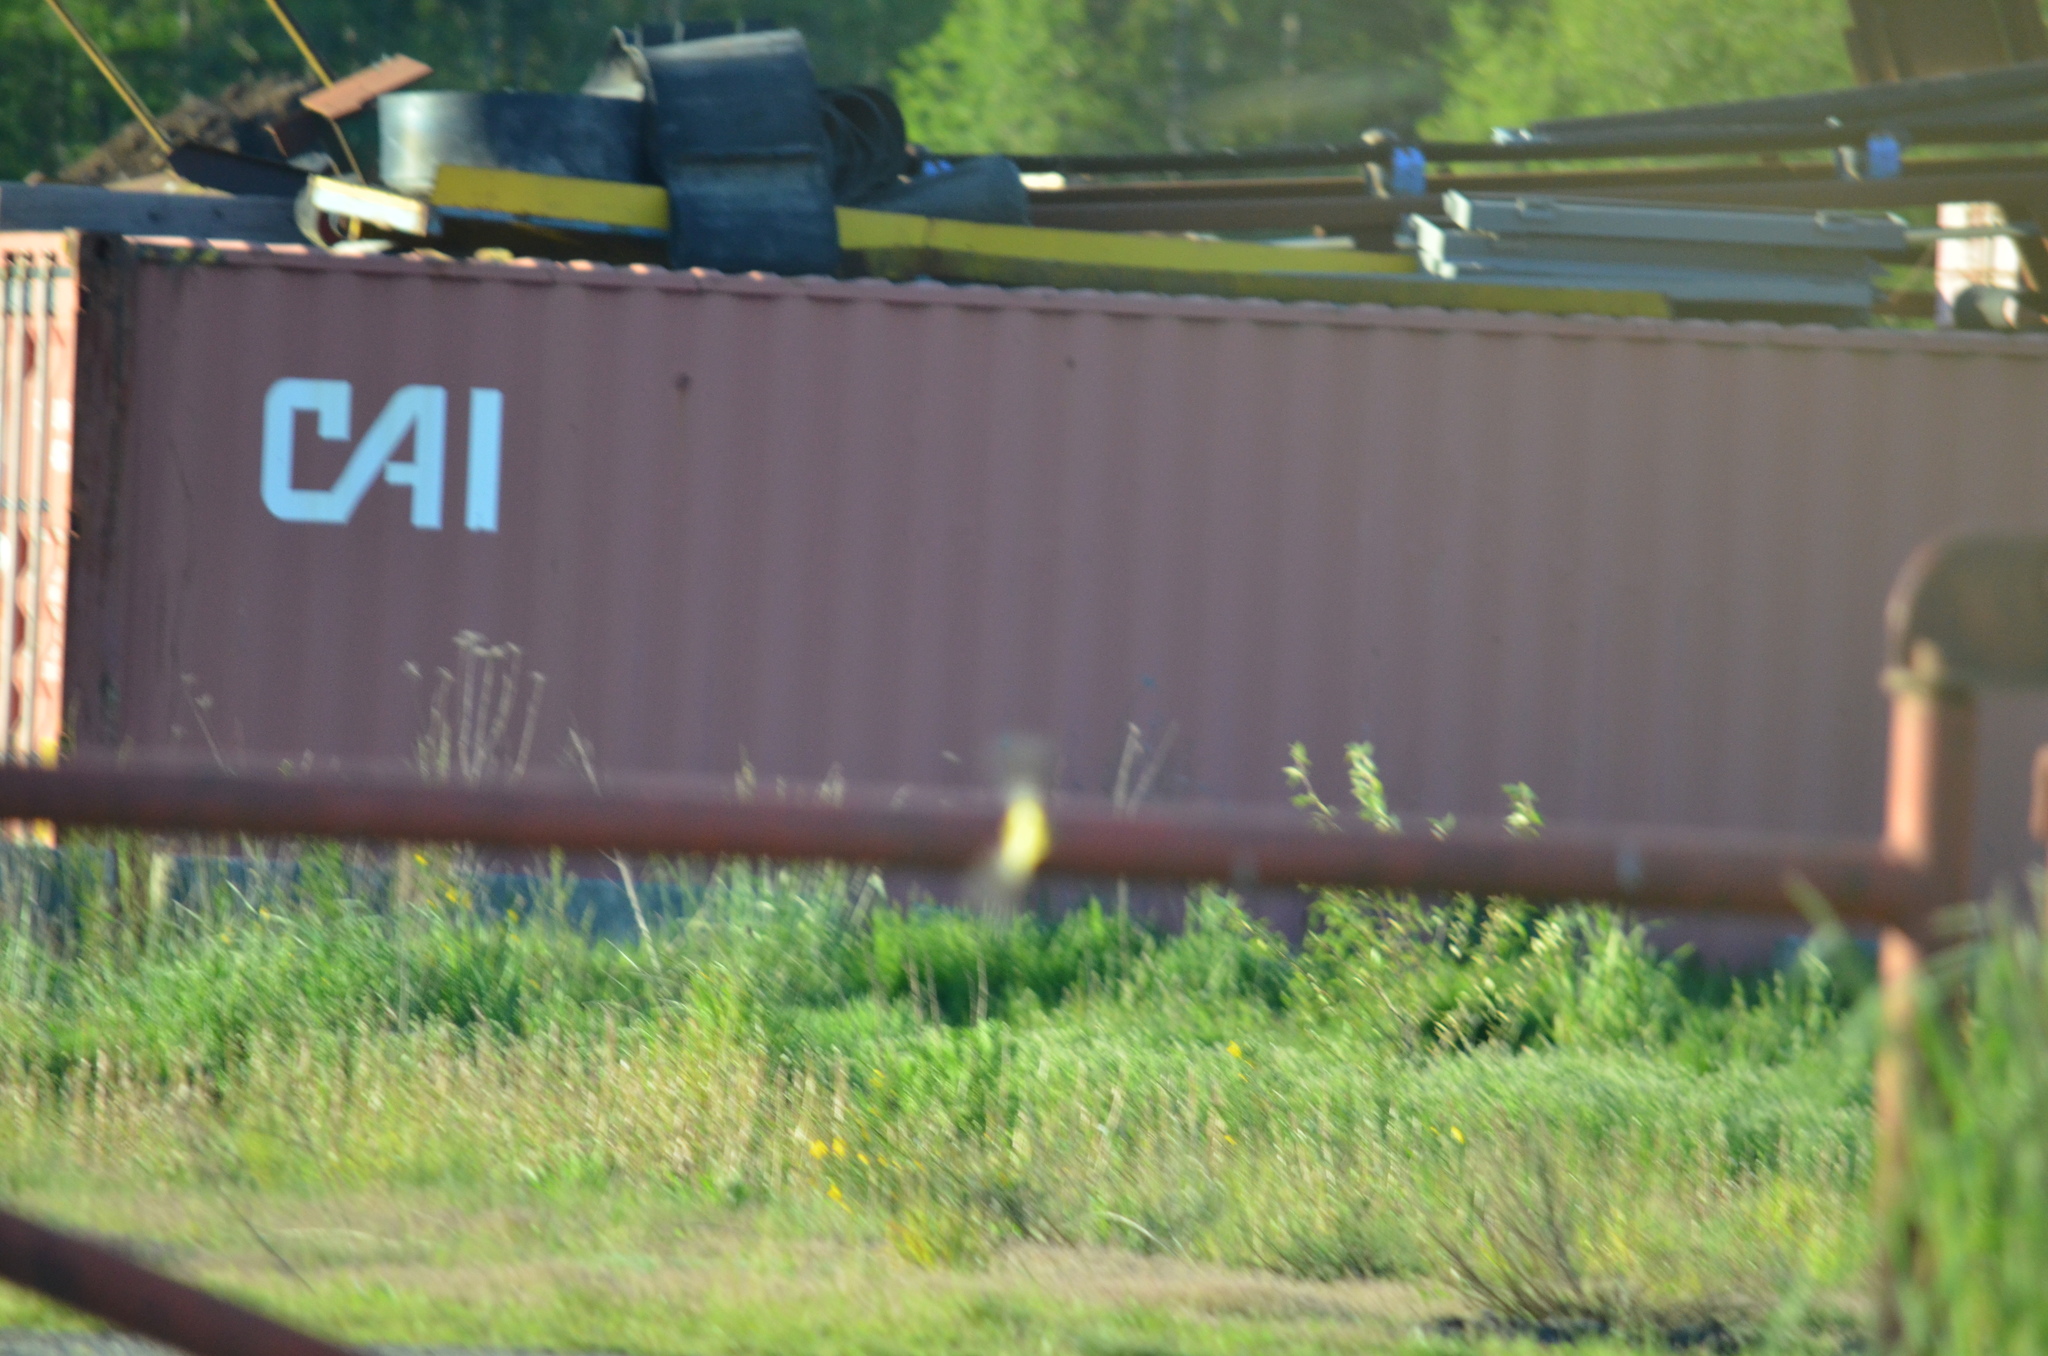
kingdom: Animalia
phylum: Chordata
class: Aves
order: Passeriformes
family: Fringillidae
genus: Spinus
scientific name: Spinus tristis
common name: American goldfinch
